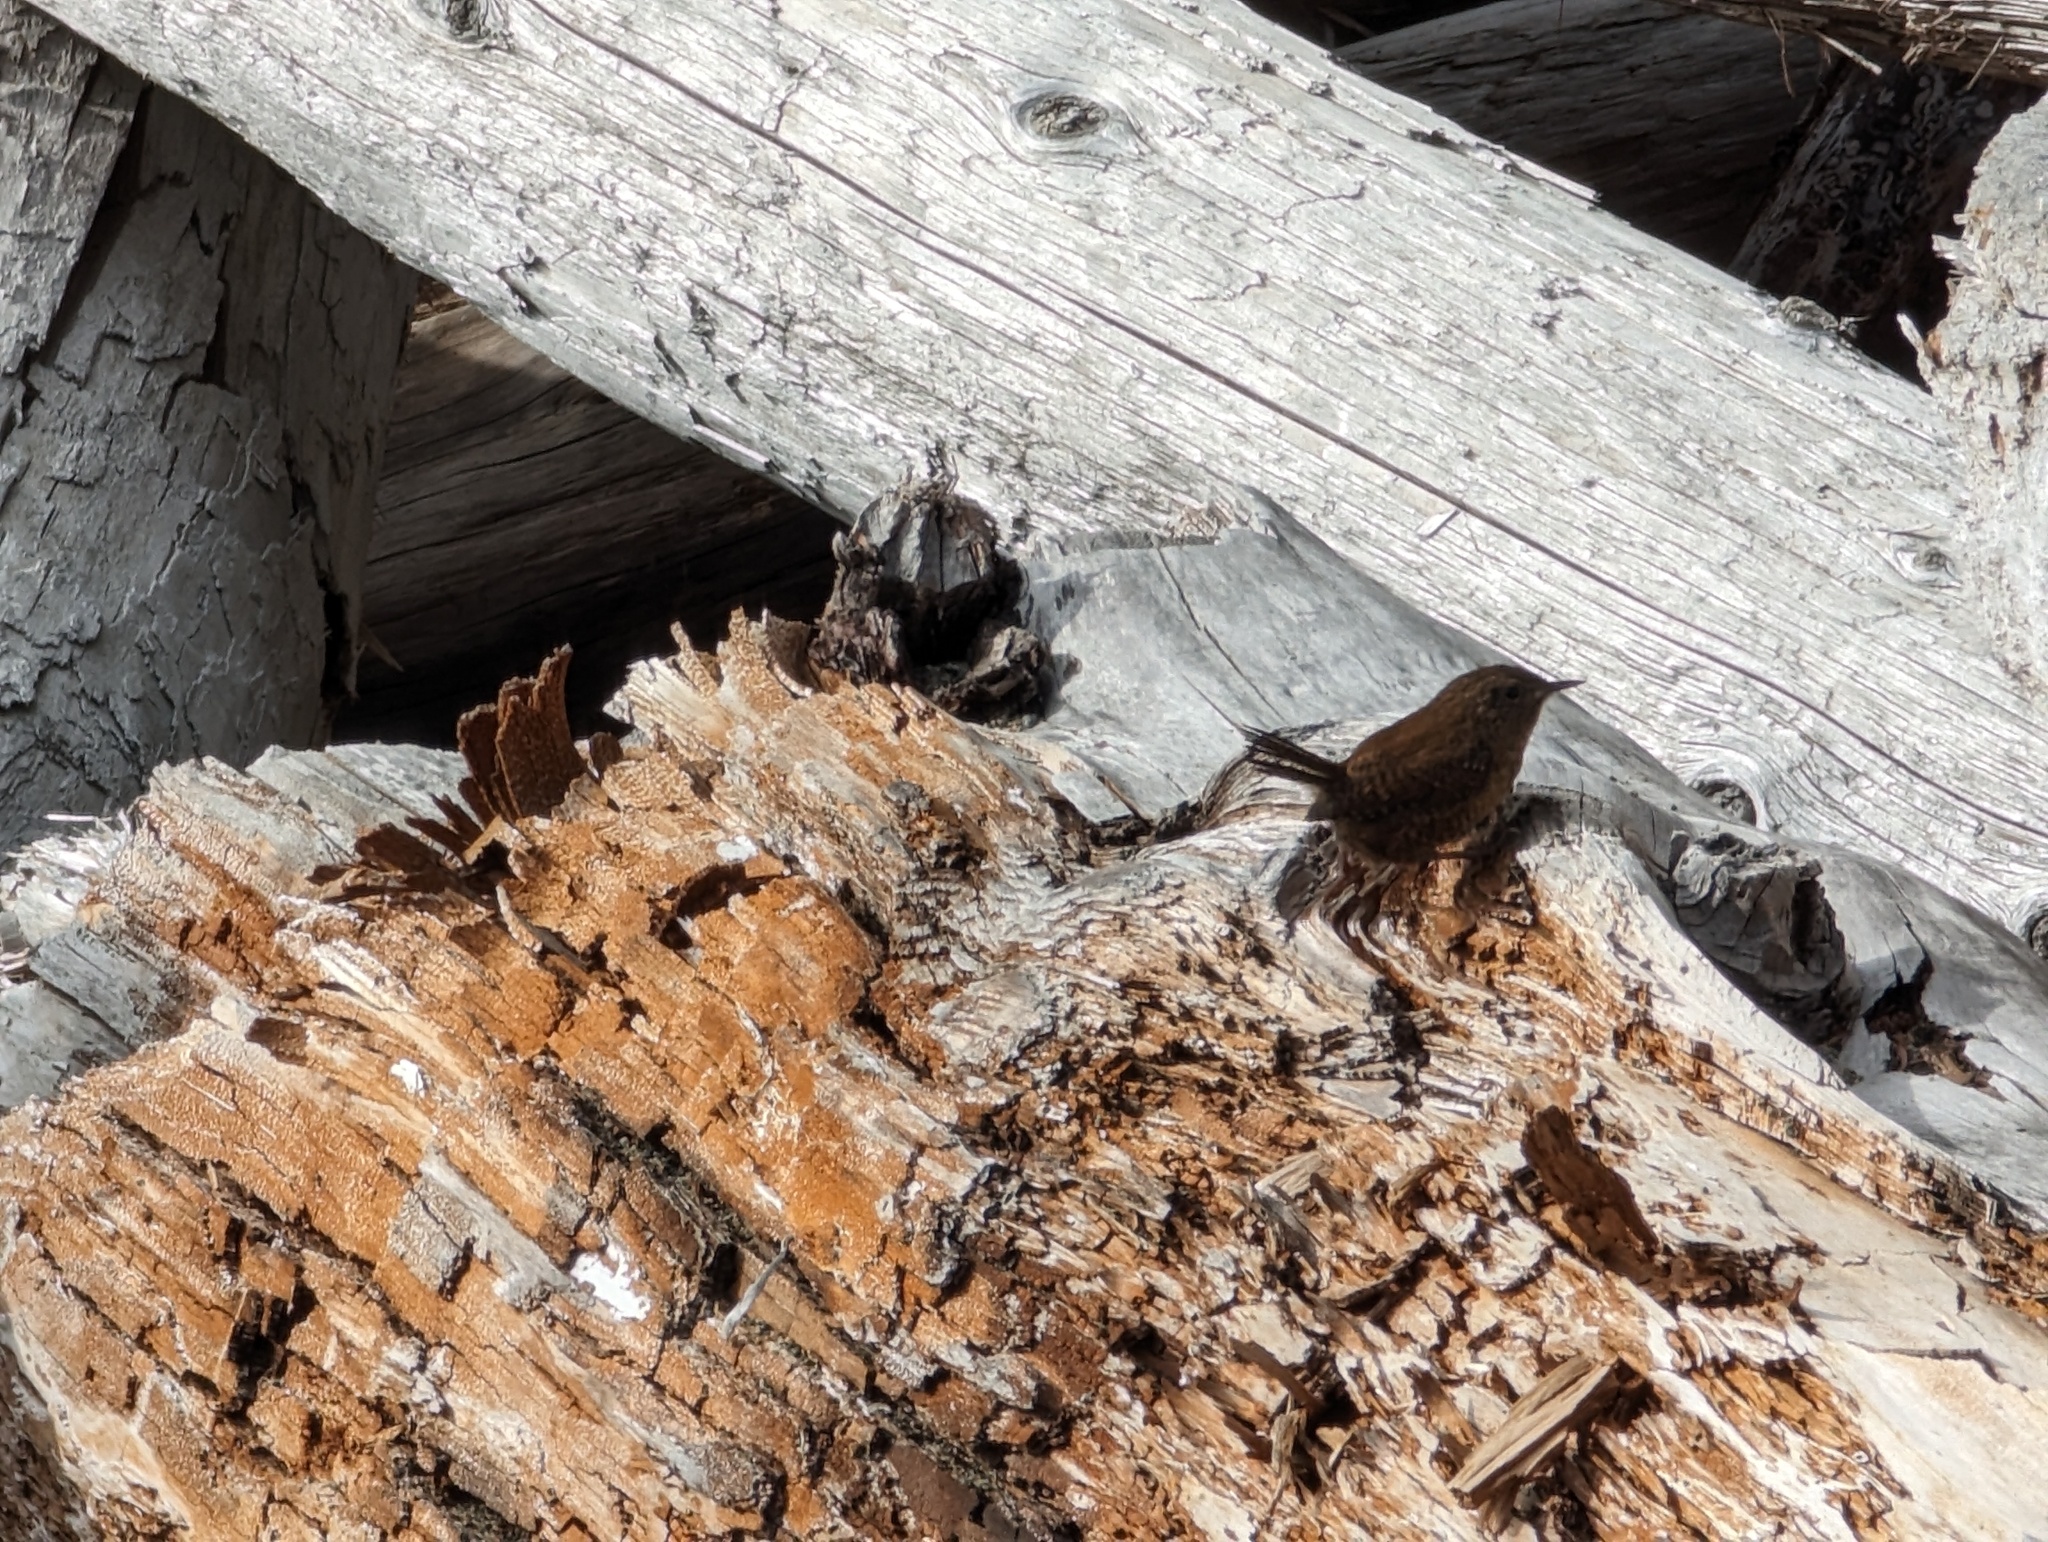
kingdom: Animalia
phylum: Chordata
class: Aves
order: Passeriformes
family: Troglodytidae
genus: Troglodytes
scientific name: Troglodytes pacificus
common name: Pacific wren
